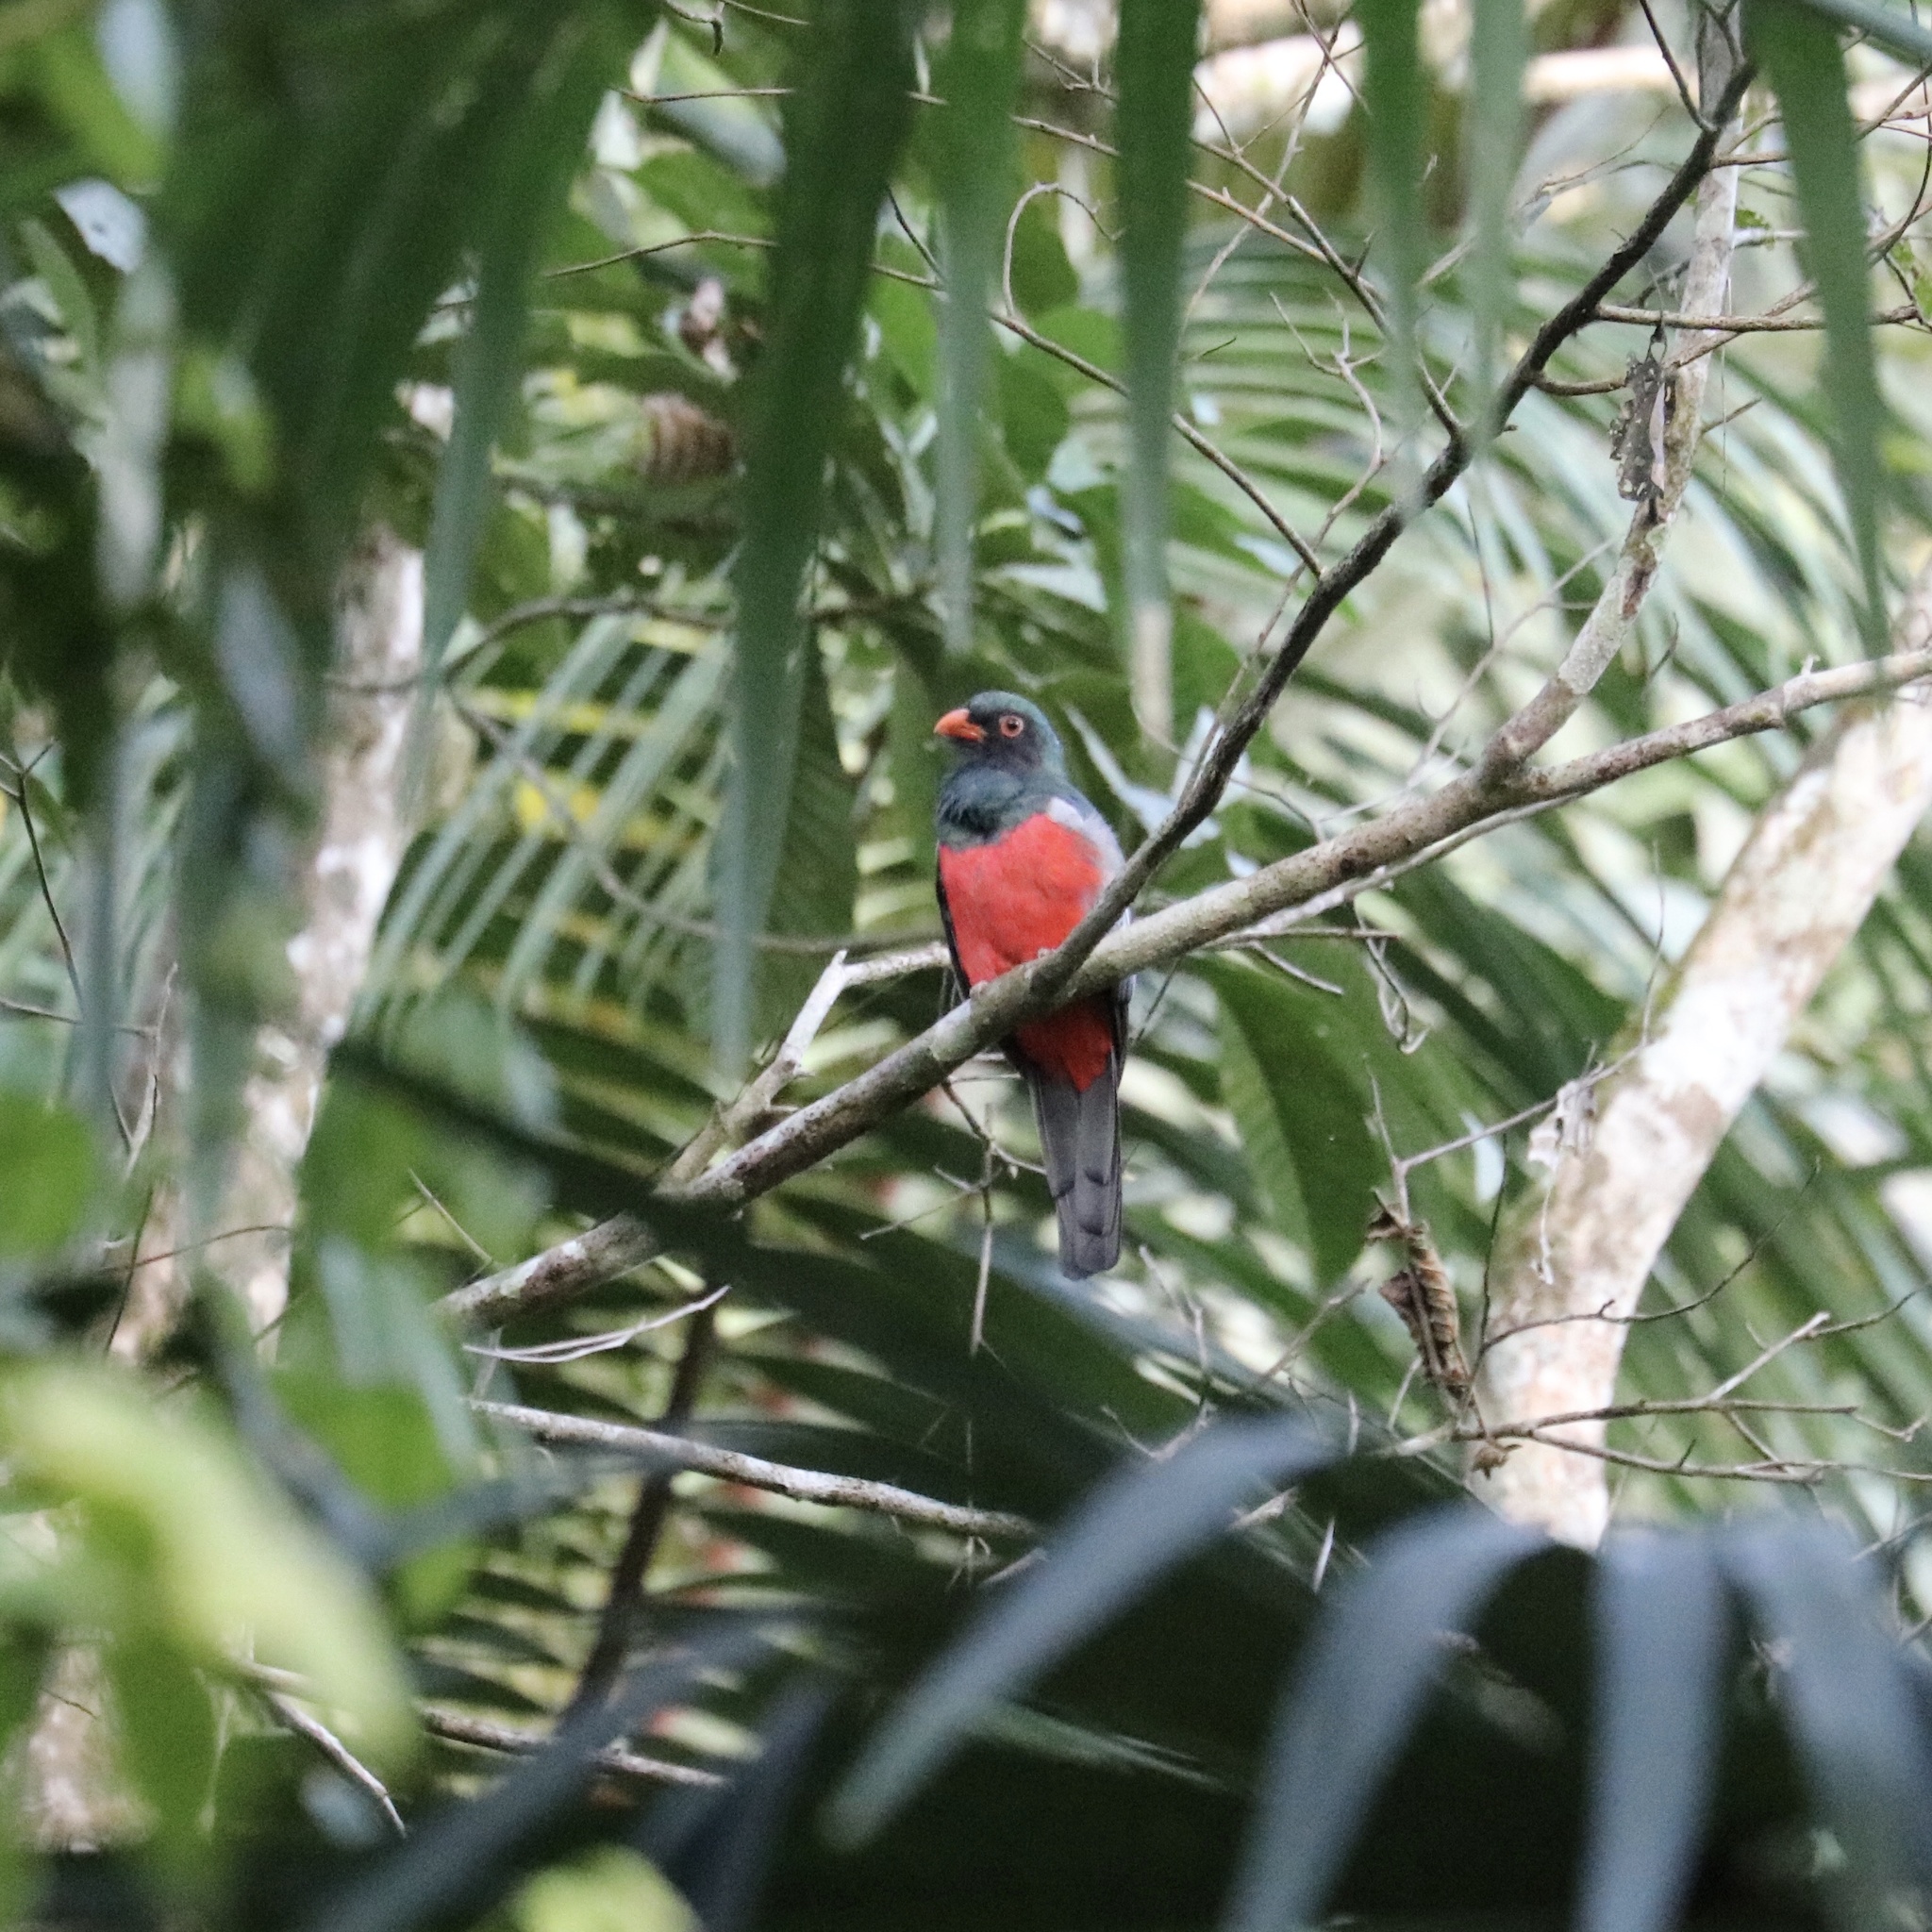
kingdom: Animalia
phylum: Chordata
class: Aves
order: Trogoniformes
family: Trogonidae
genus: Trogon
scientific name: Trogon massena
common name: Slaty-tailed trogon
